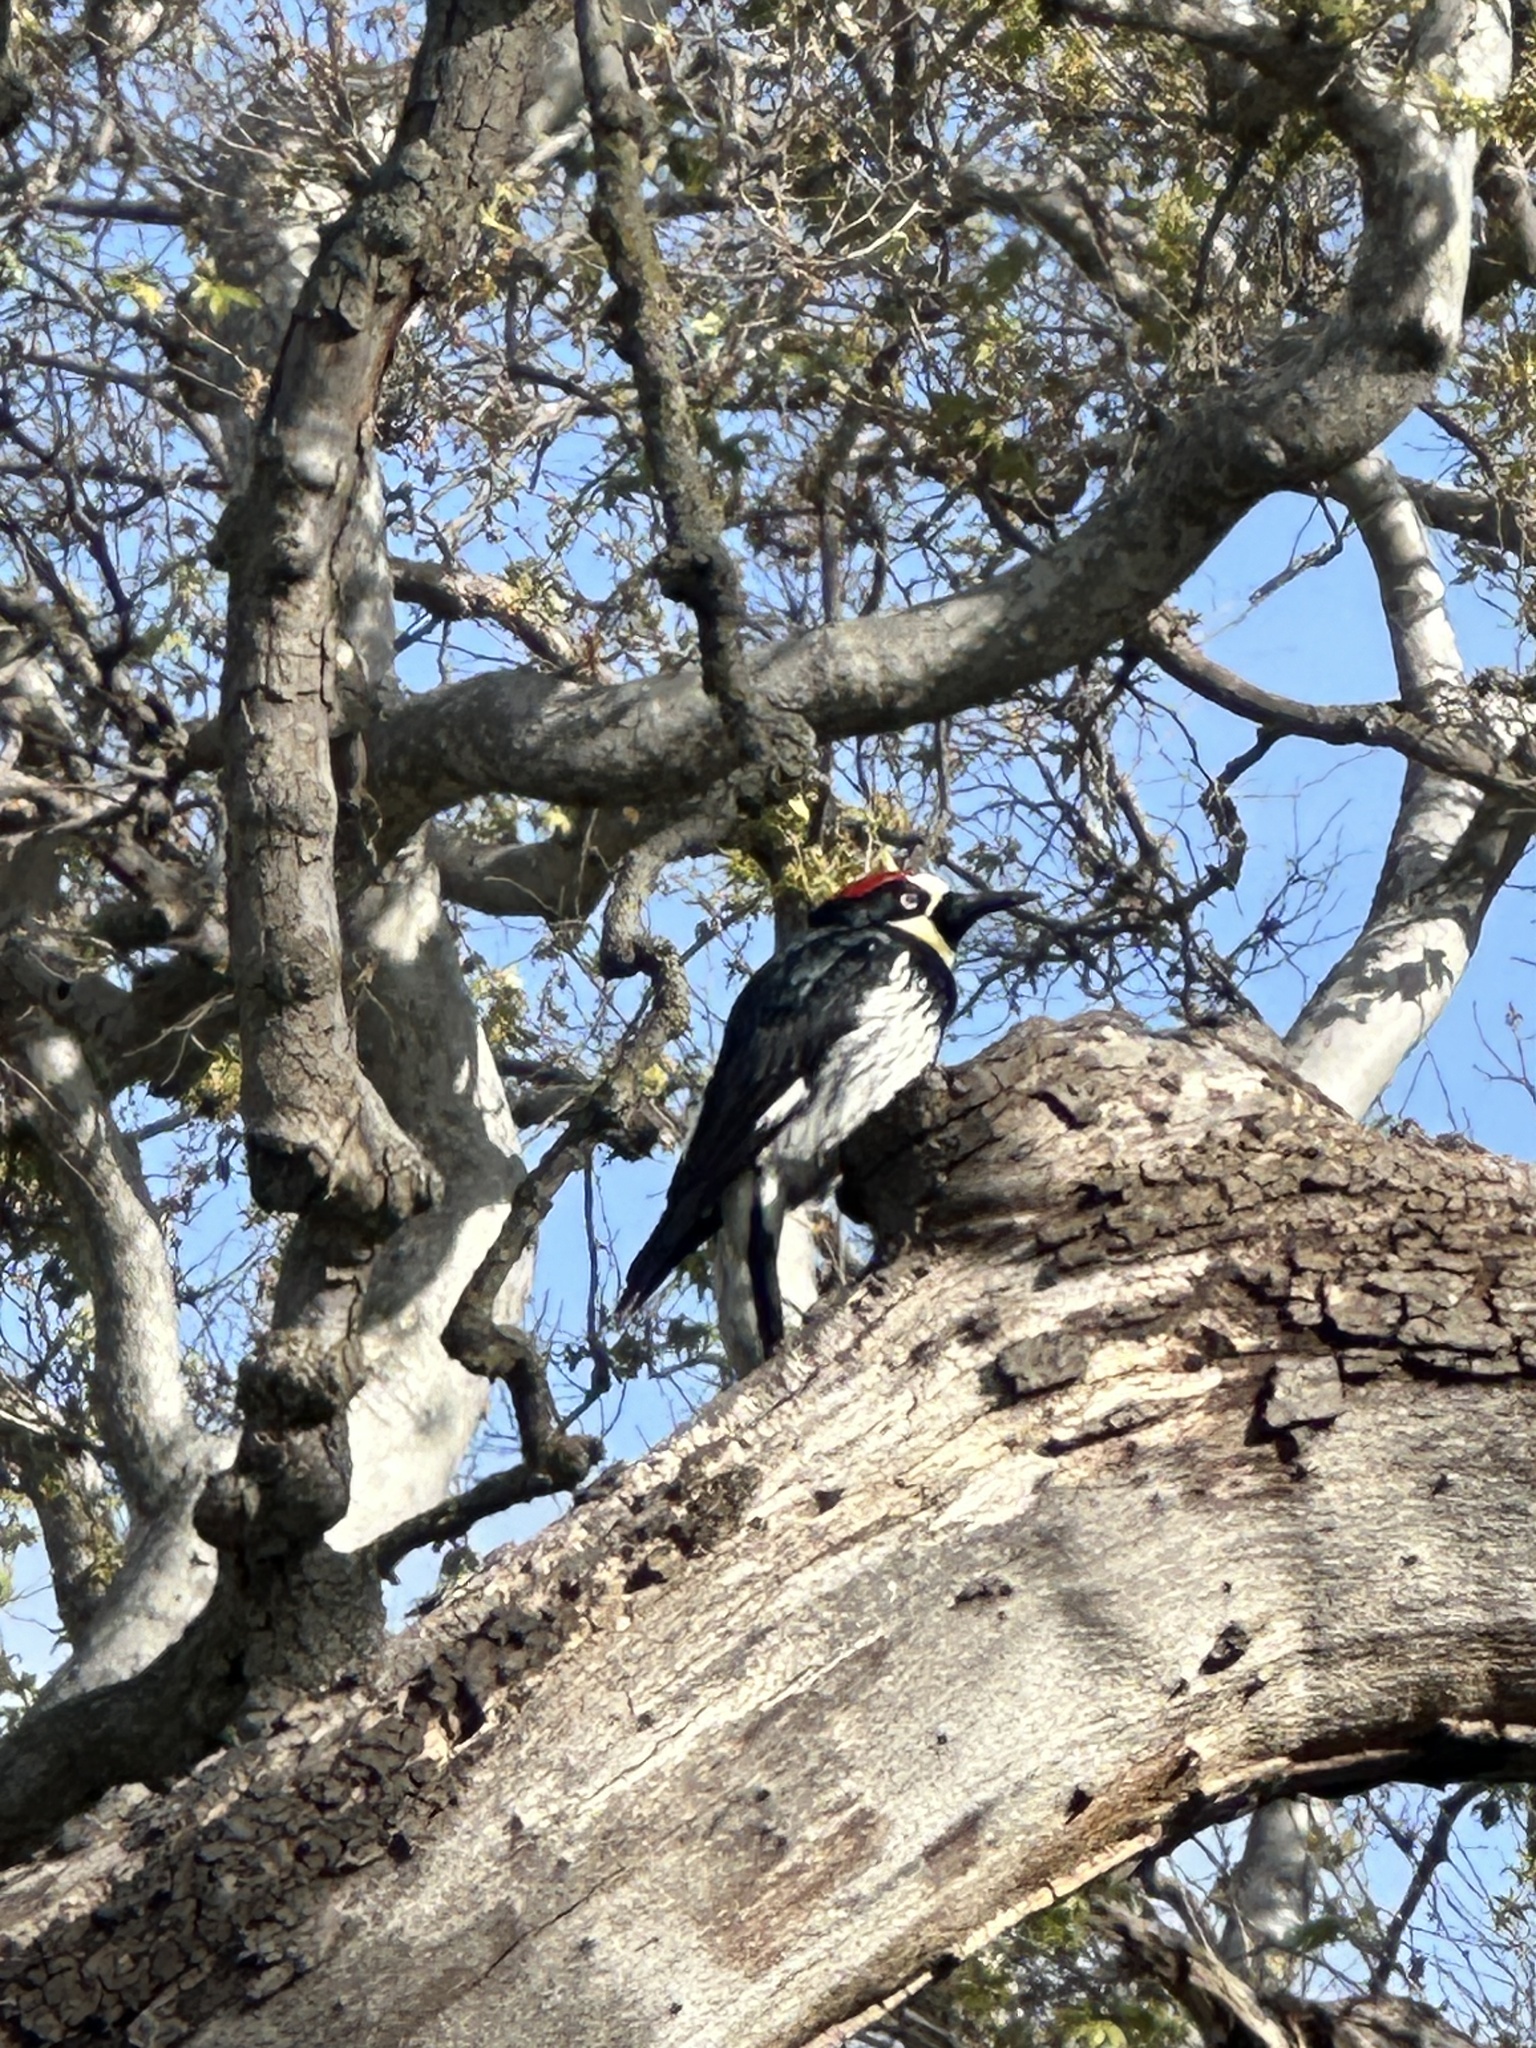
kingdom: Animalia
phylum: Chordata
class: Aves
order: Piciformes
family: Picidae
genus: Melanerpes
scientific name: Melanerpes formicivorus
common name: Acorn woodpecker
